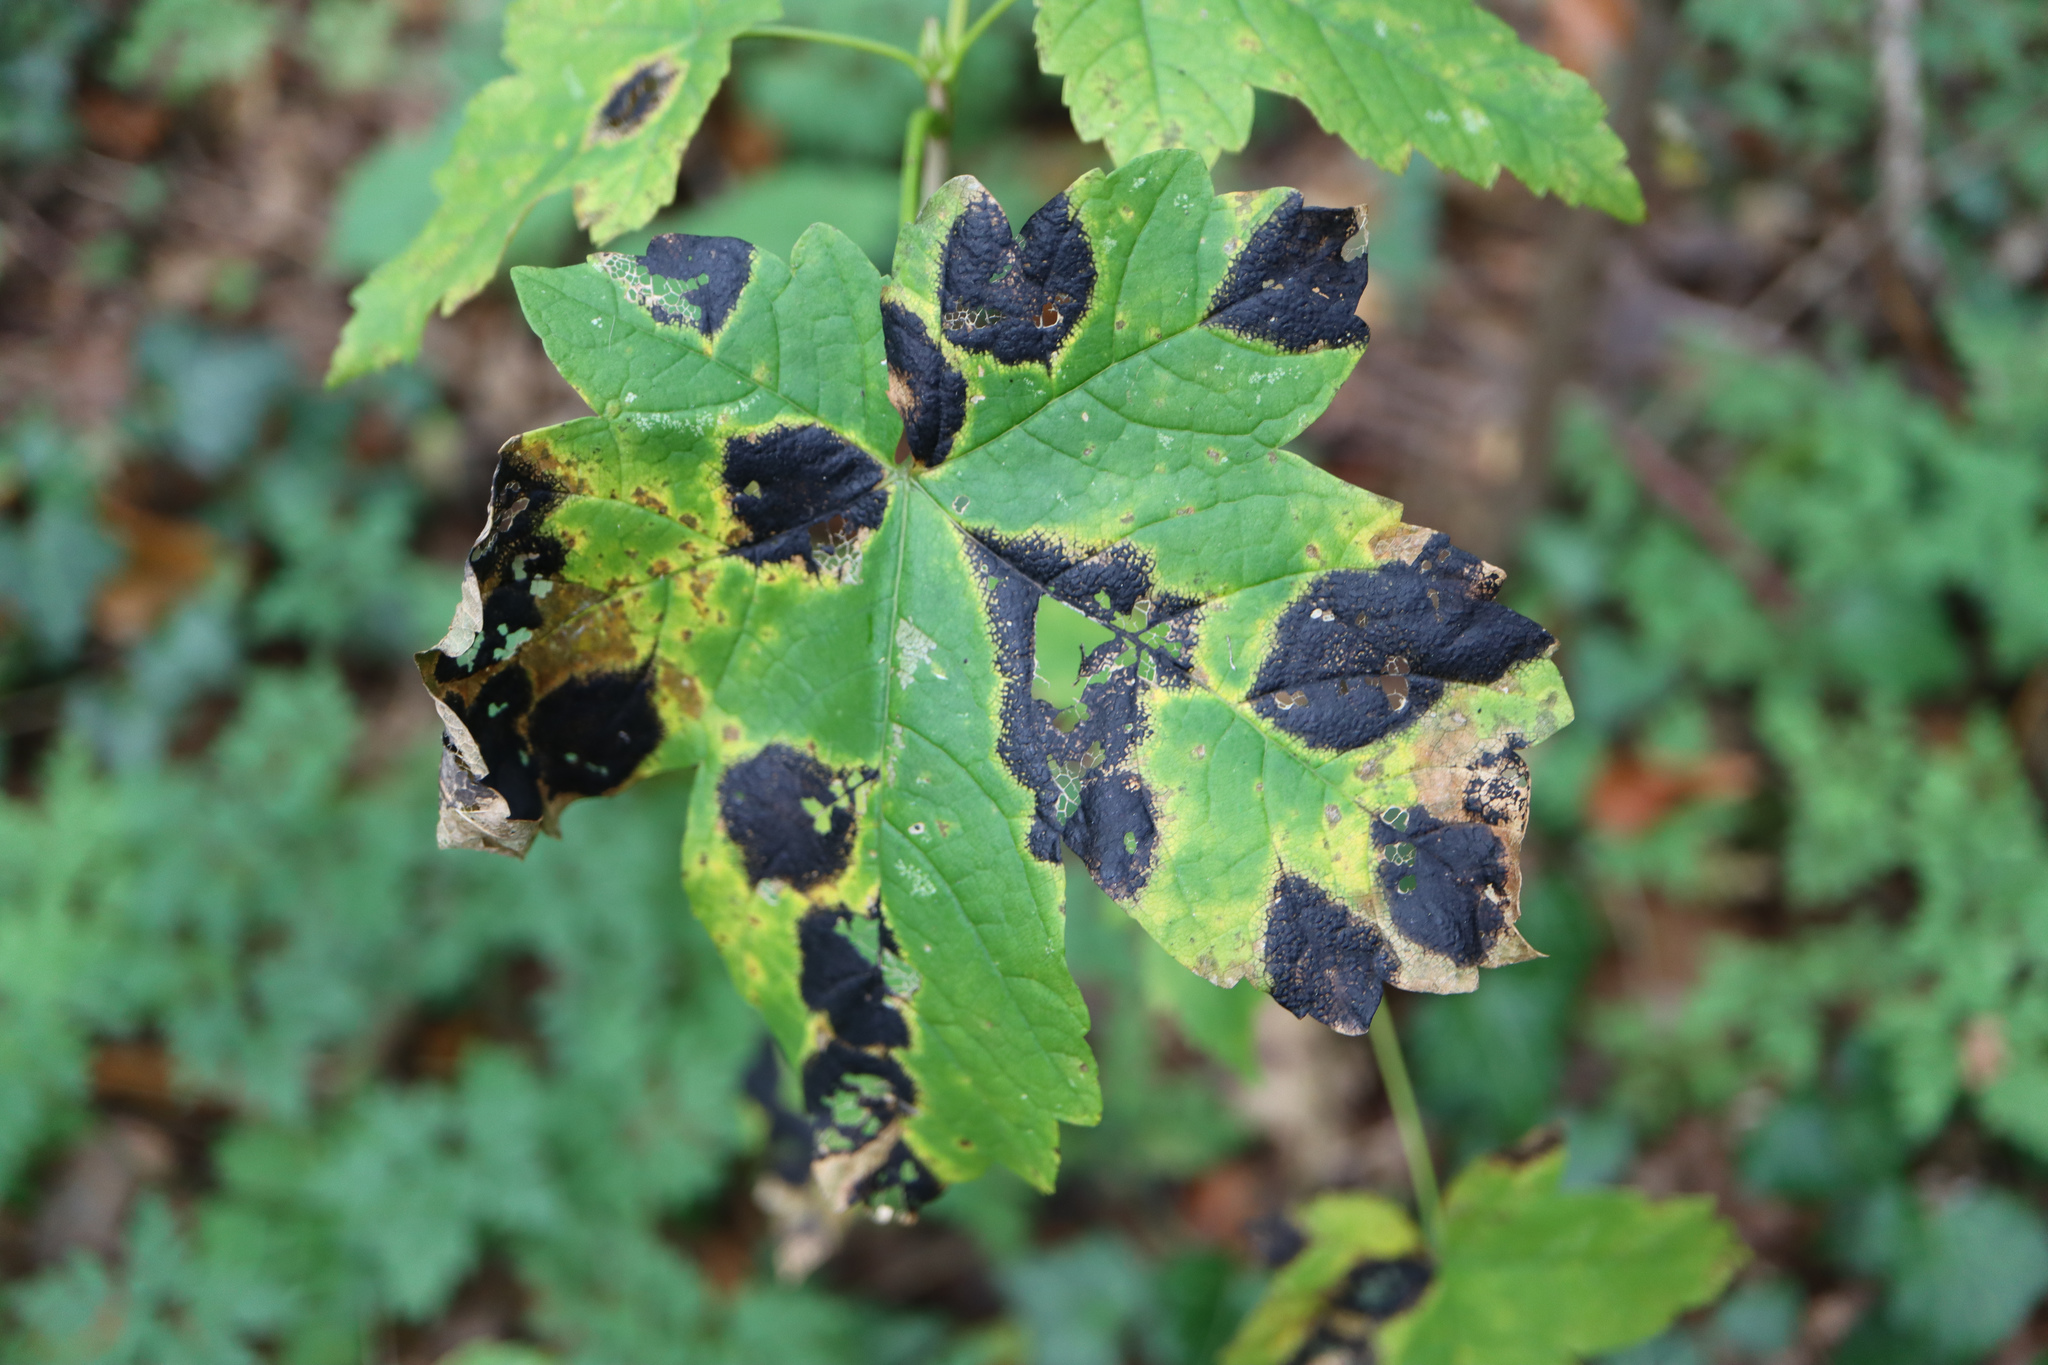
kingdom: Fungi
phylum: Ascomycota
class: Leotiomycetes
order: Rhytismatales
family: Rhytismataceae
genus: Rhytisma
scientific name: Rhytisma acerinum
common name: European tar spot
